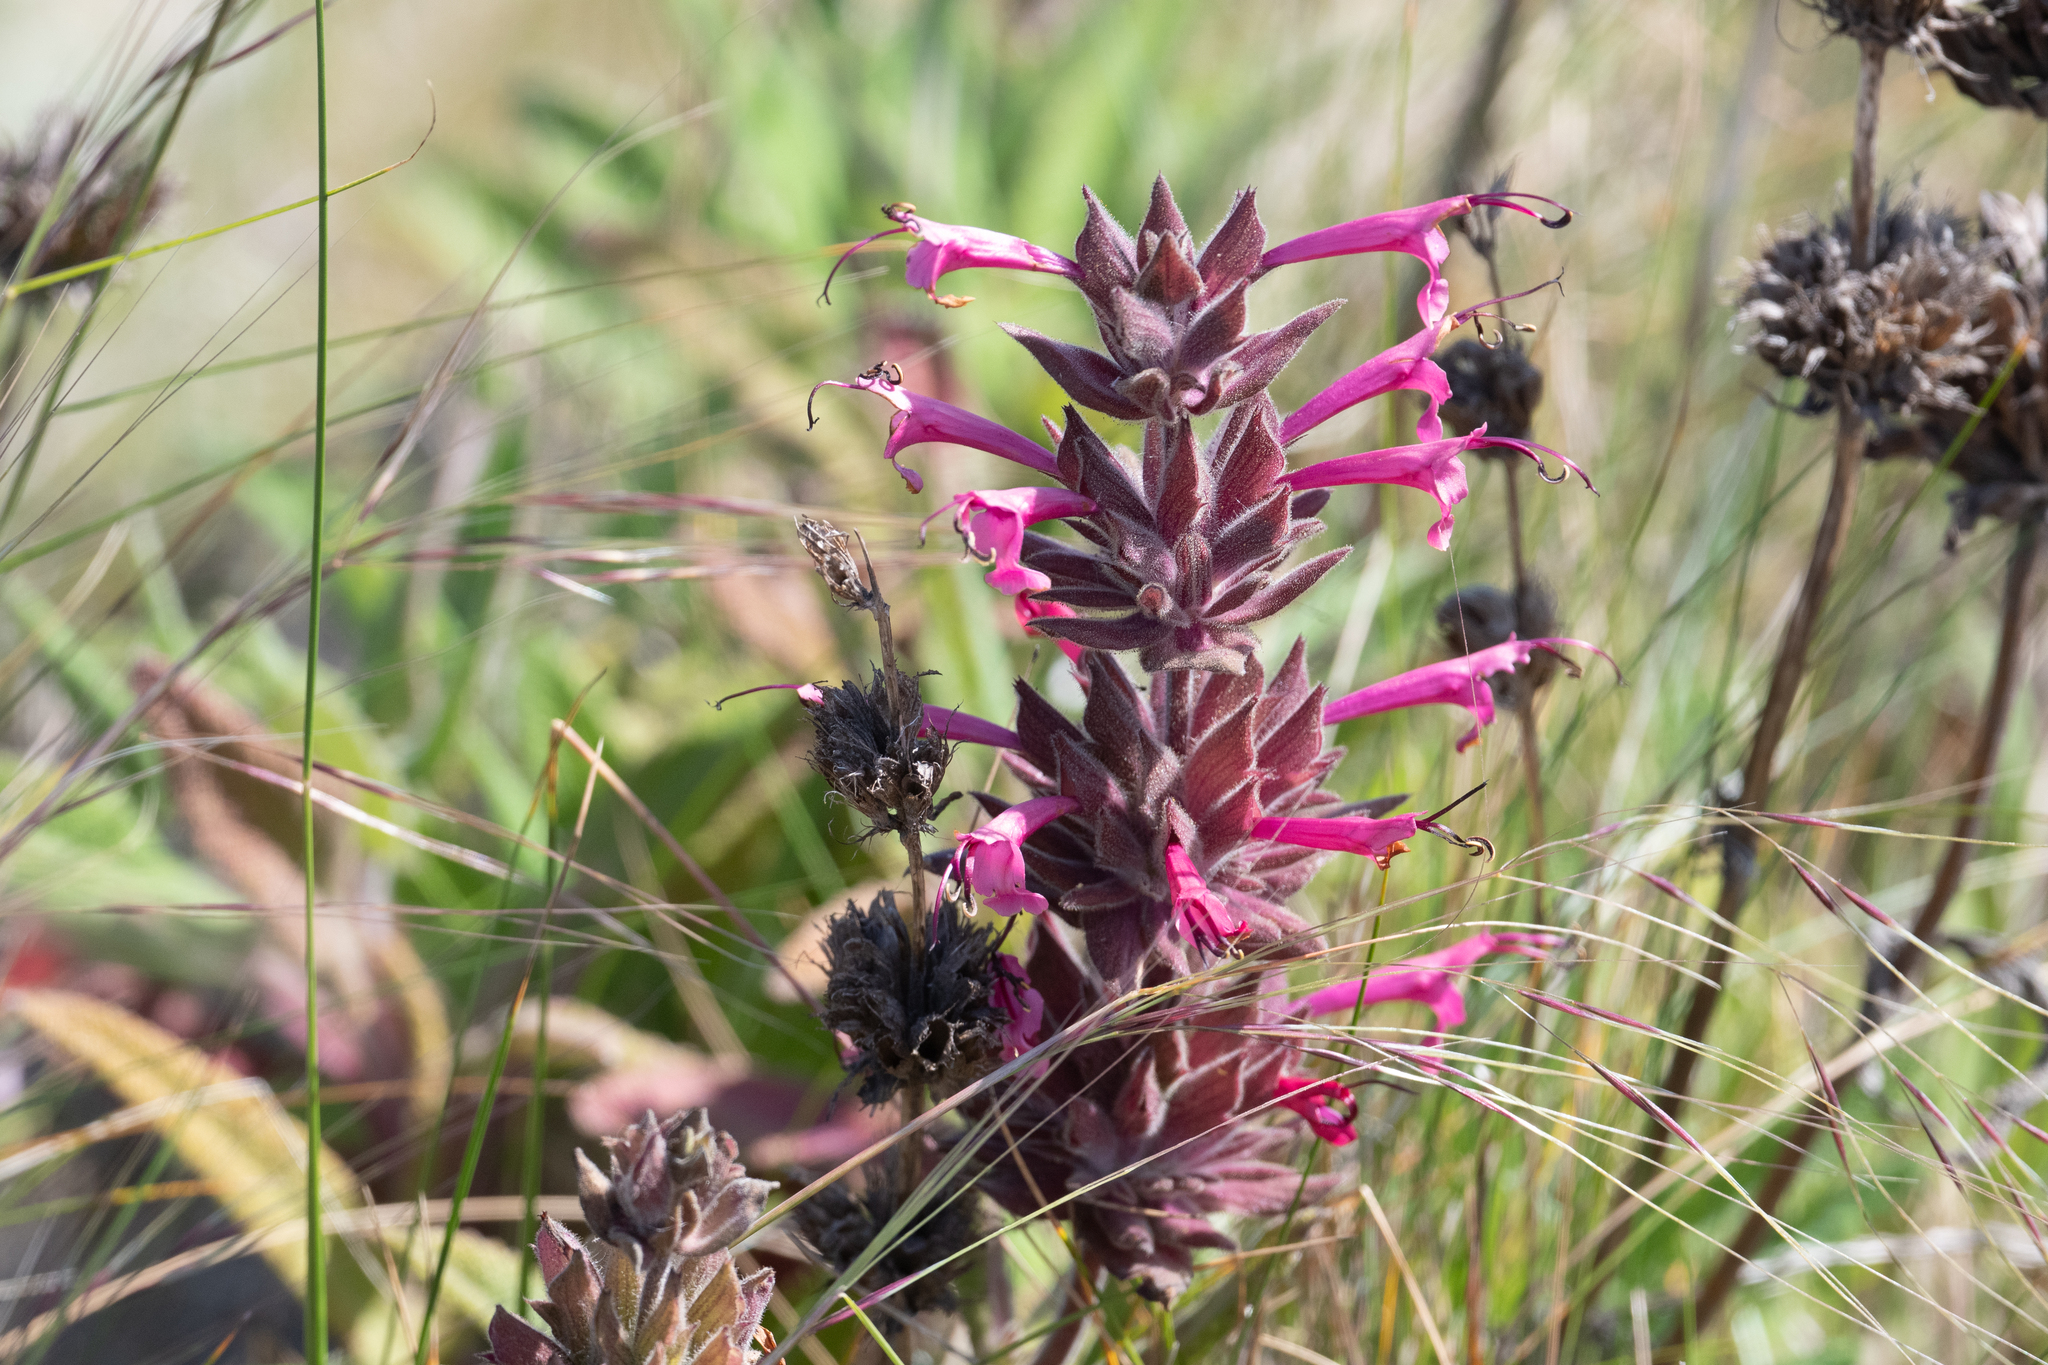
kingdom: Plantae
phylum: Tracheophyta
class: Magnoliopsida
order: Lamiales
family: Lamiaceae
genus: Salvia
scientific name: Salvia spathacea
